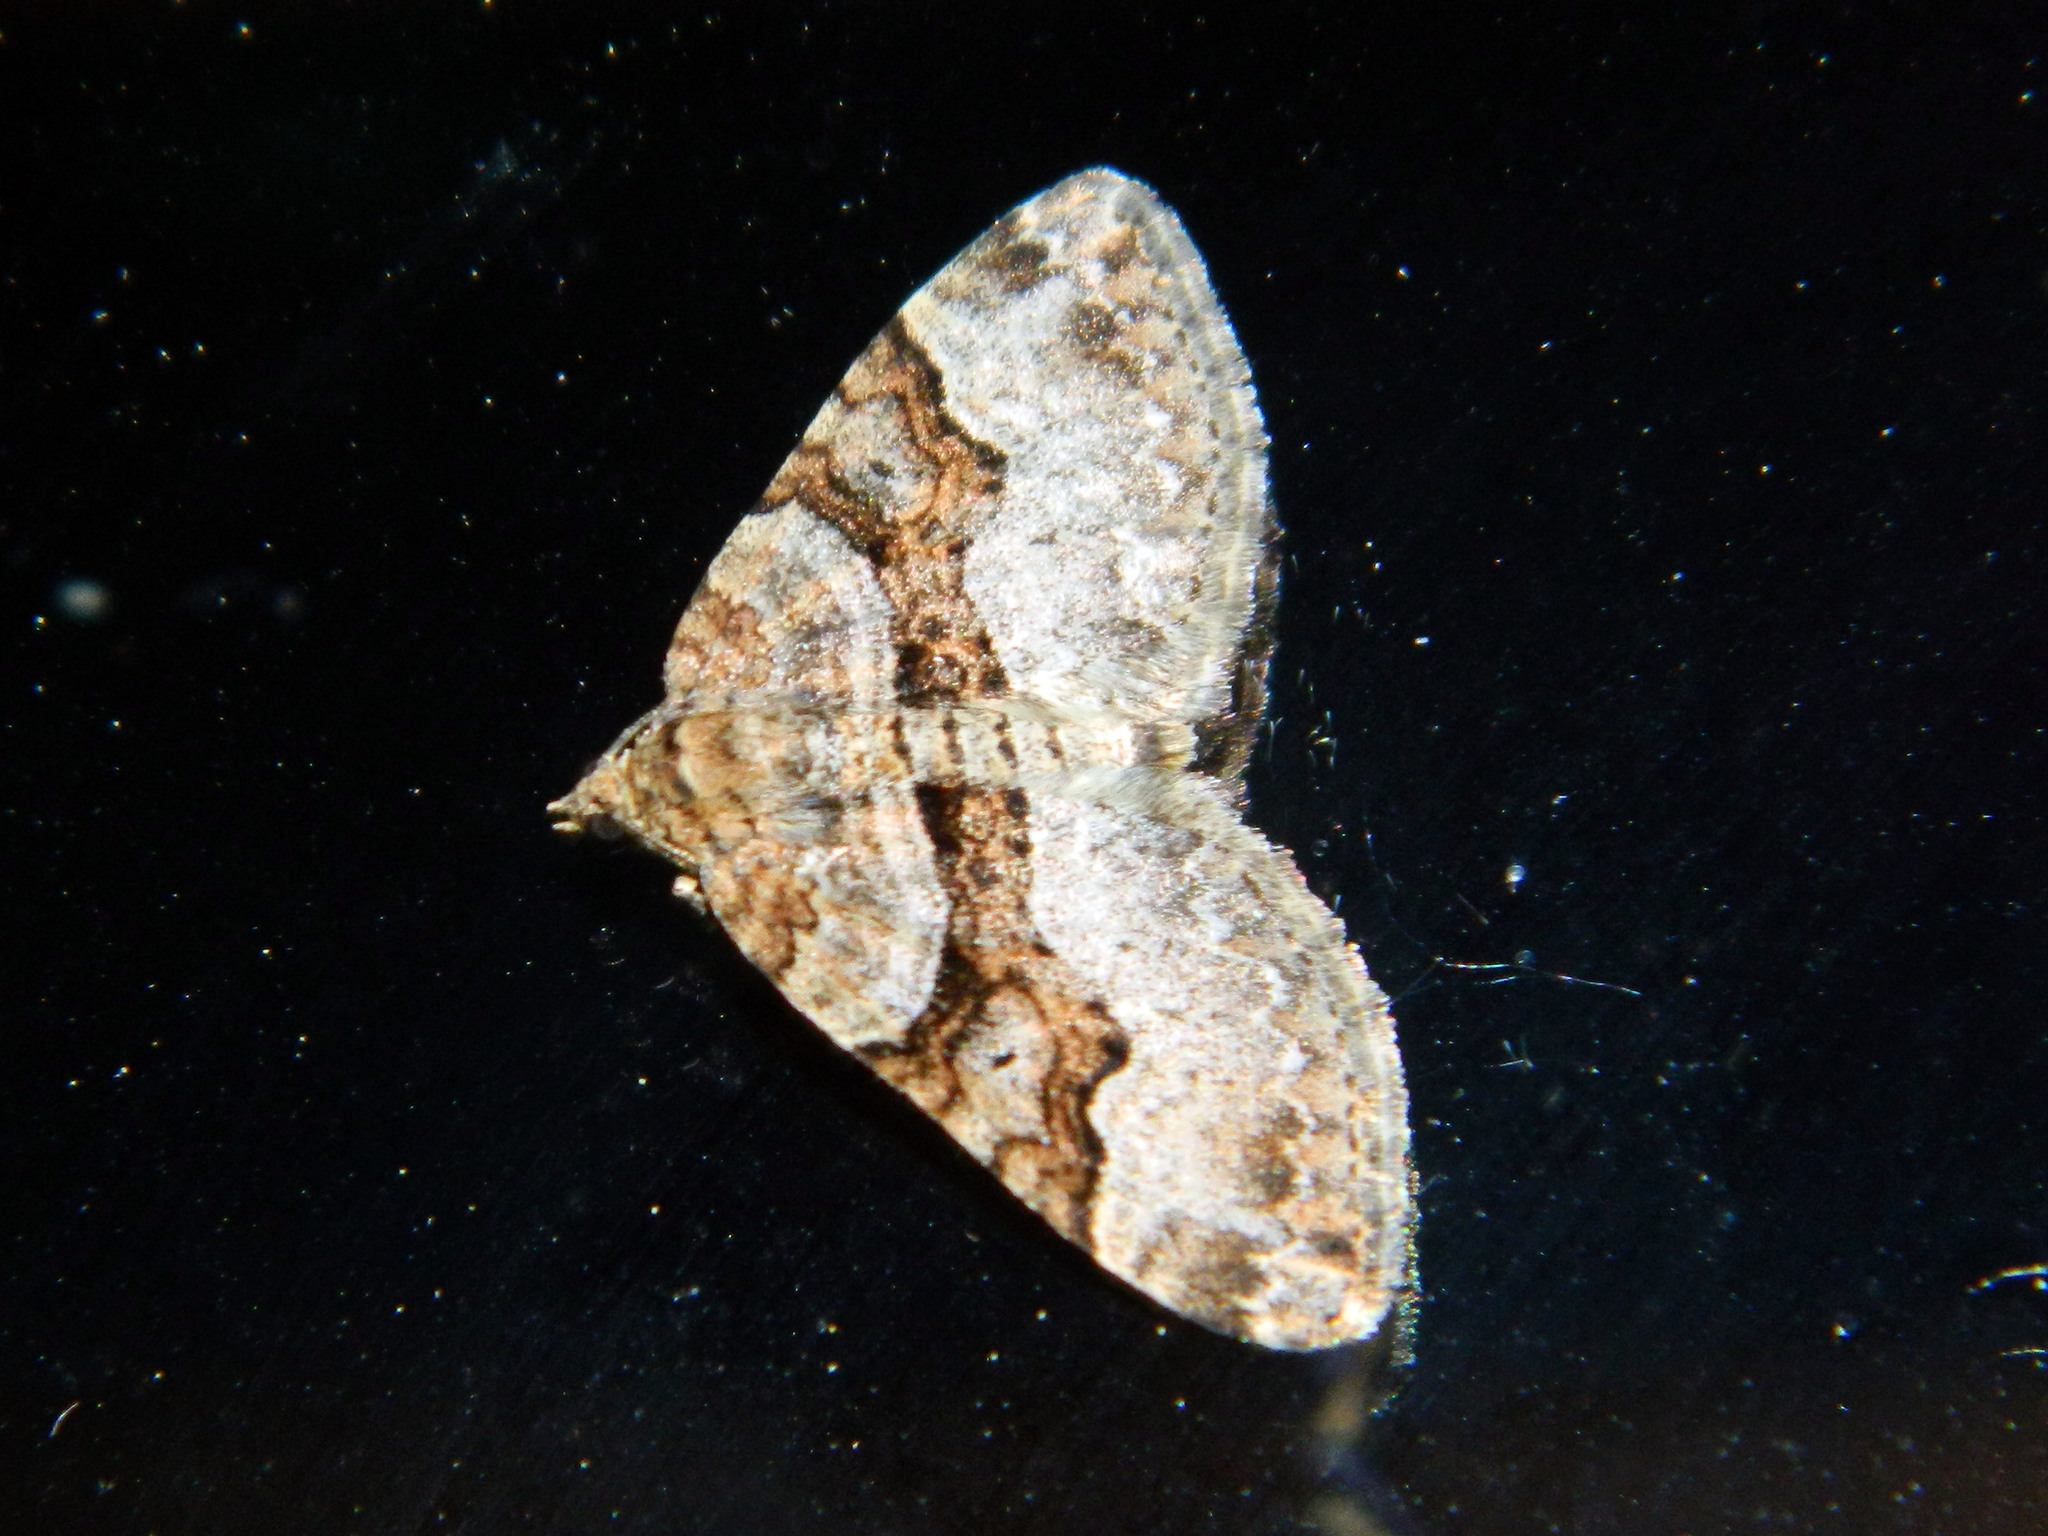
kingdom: Animalia
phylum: Arthropoda
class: Insecta
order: Lepidoptera
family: Geometridae
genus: Xanthorhoe
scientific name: Xanthorhoe lacustrata
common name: Toothed brown carpet
